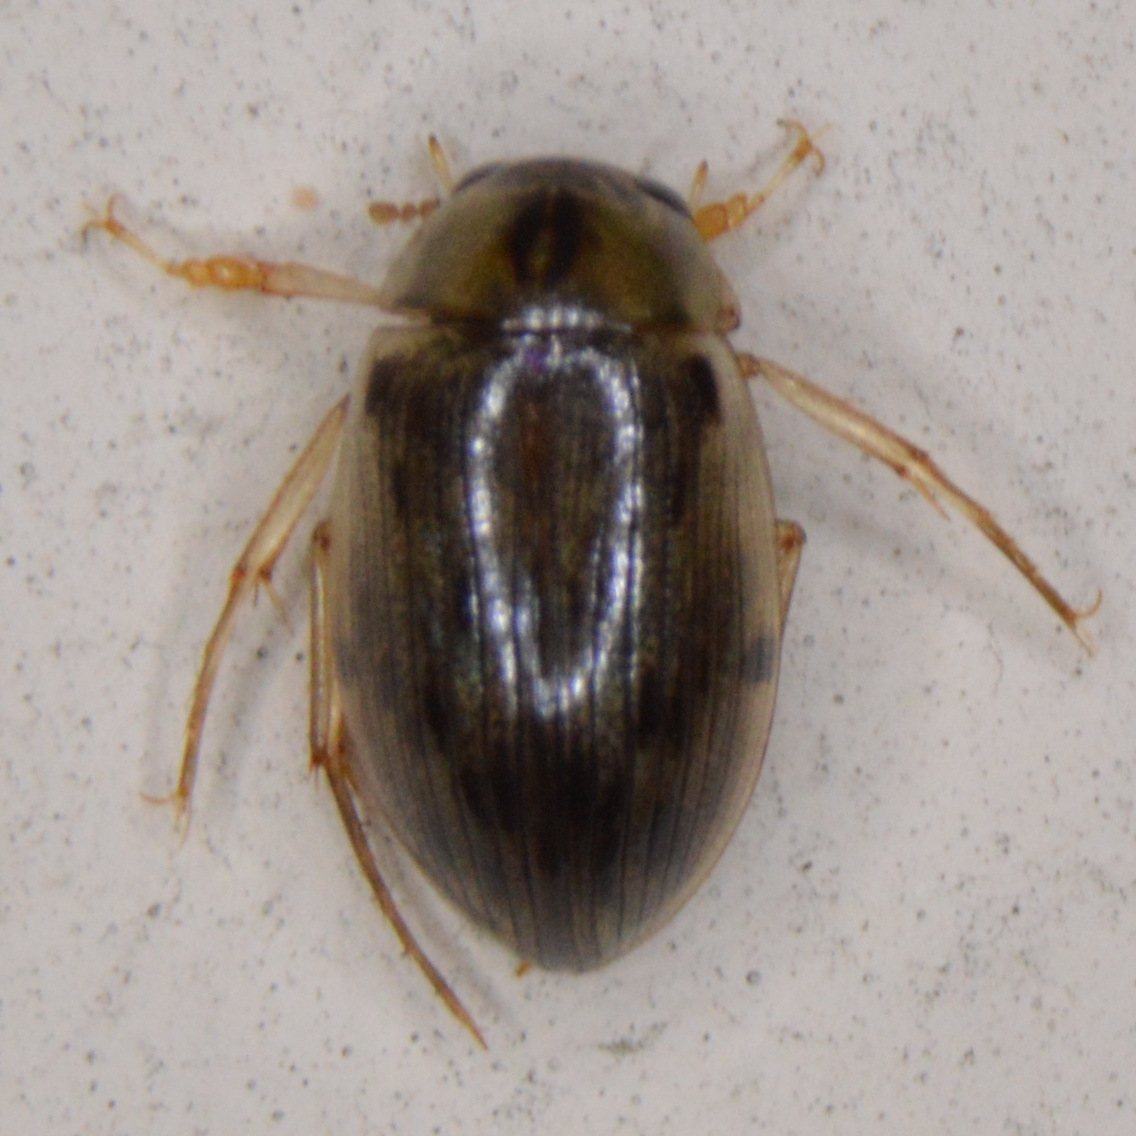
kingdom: Animalia
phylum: Arthropoda
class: Insecta
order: Coleoptera
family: Hydrophilidae
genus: Berosus
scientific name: Berosus
